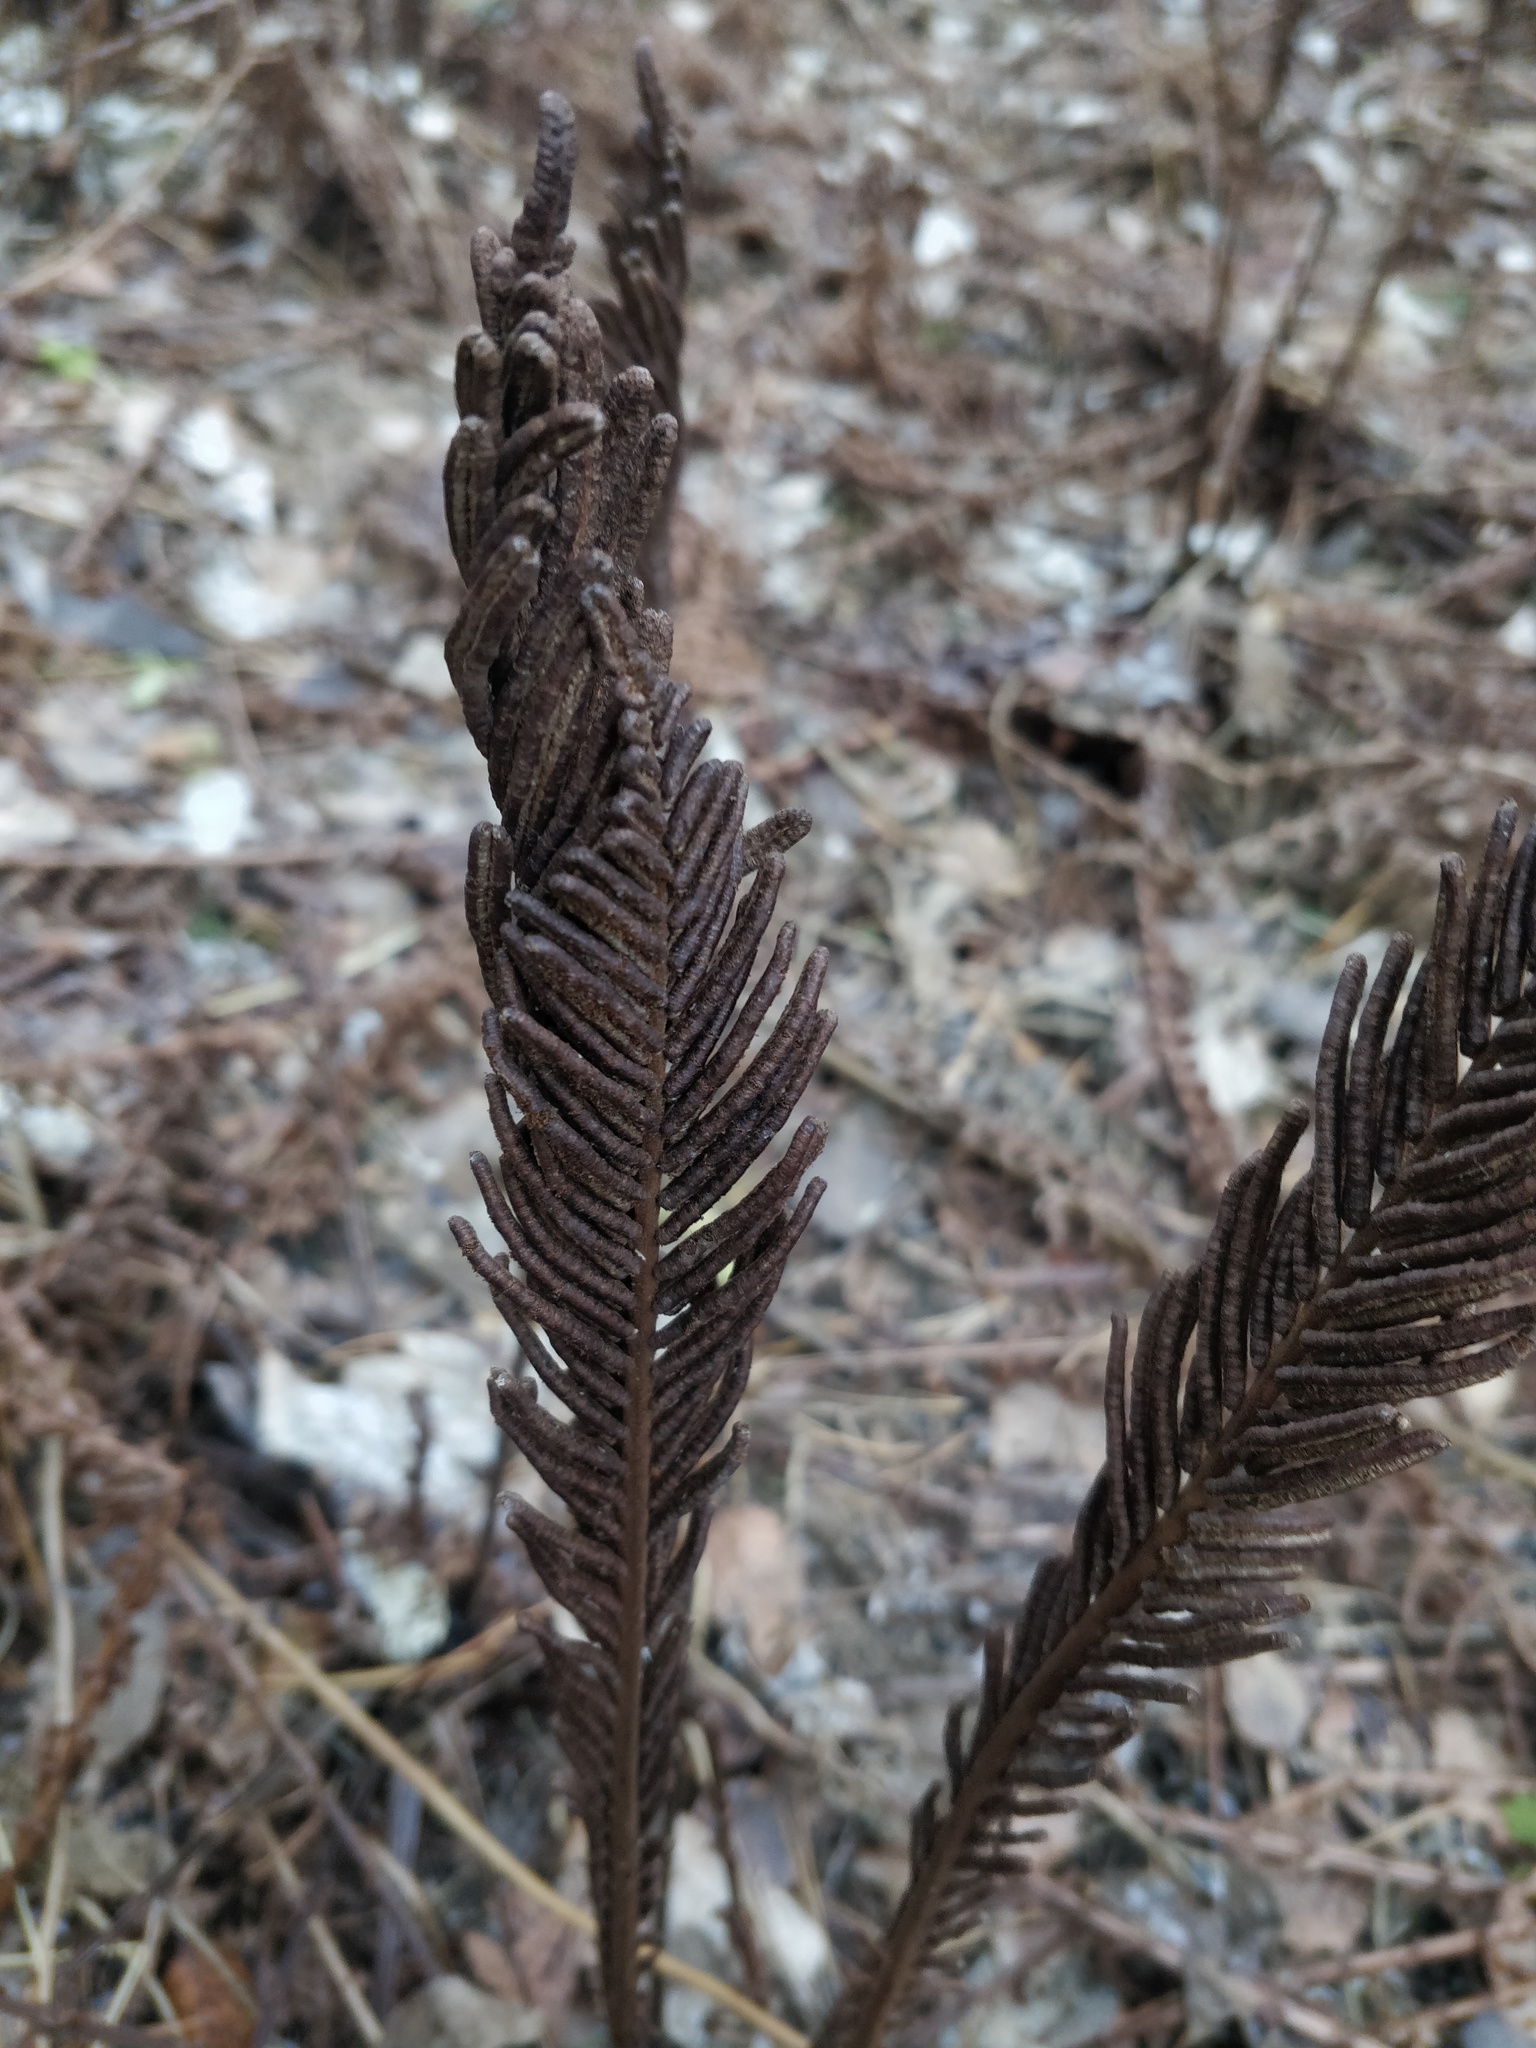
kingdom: Plantae
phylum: Tracheophyta
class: Polypodiopsida
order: Polypodiales
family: Onocleaceae
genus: Matteuccia
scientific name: Matteuccia struthiopteris
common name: Ostrich fern
